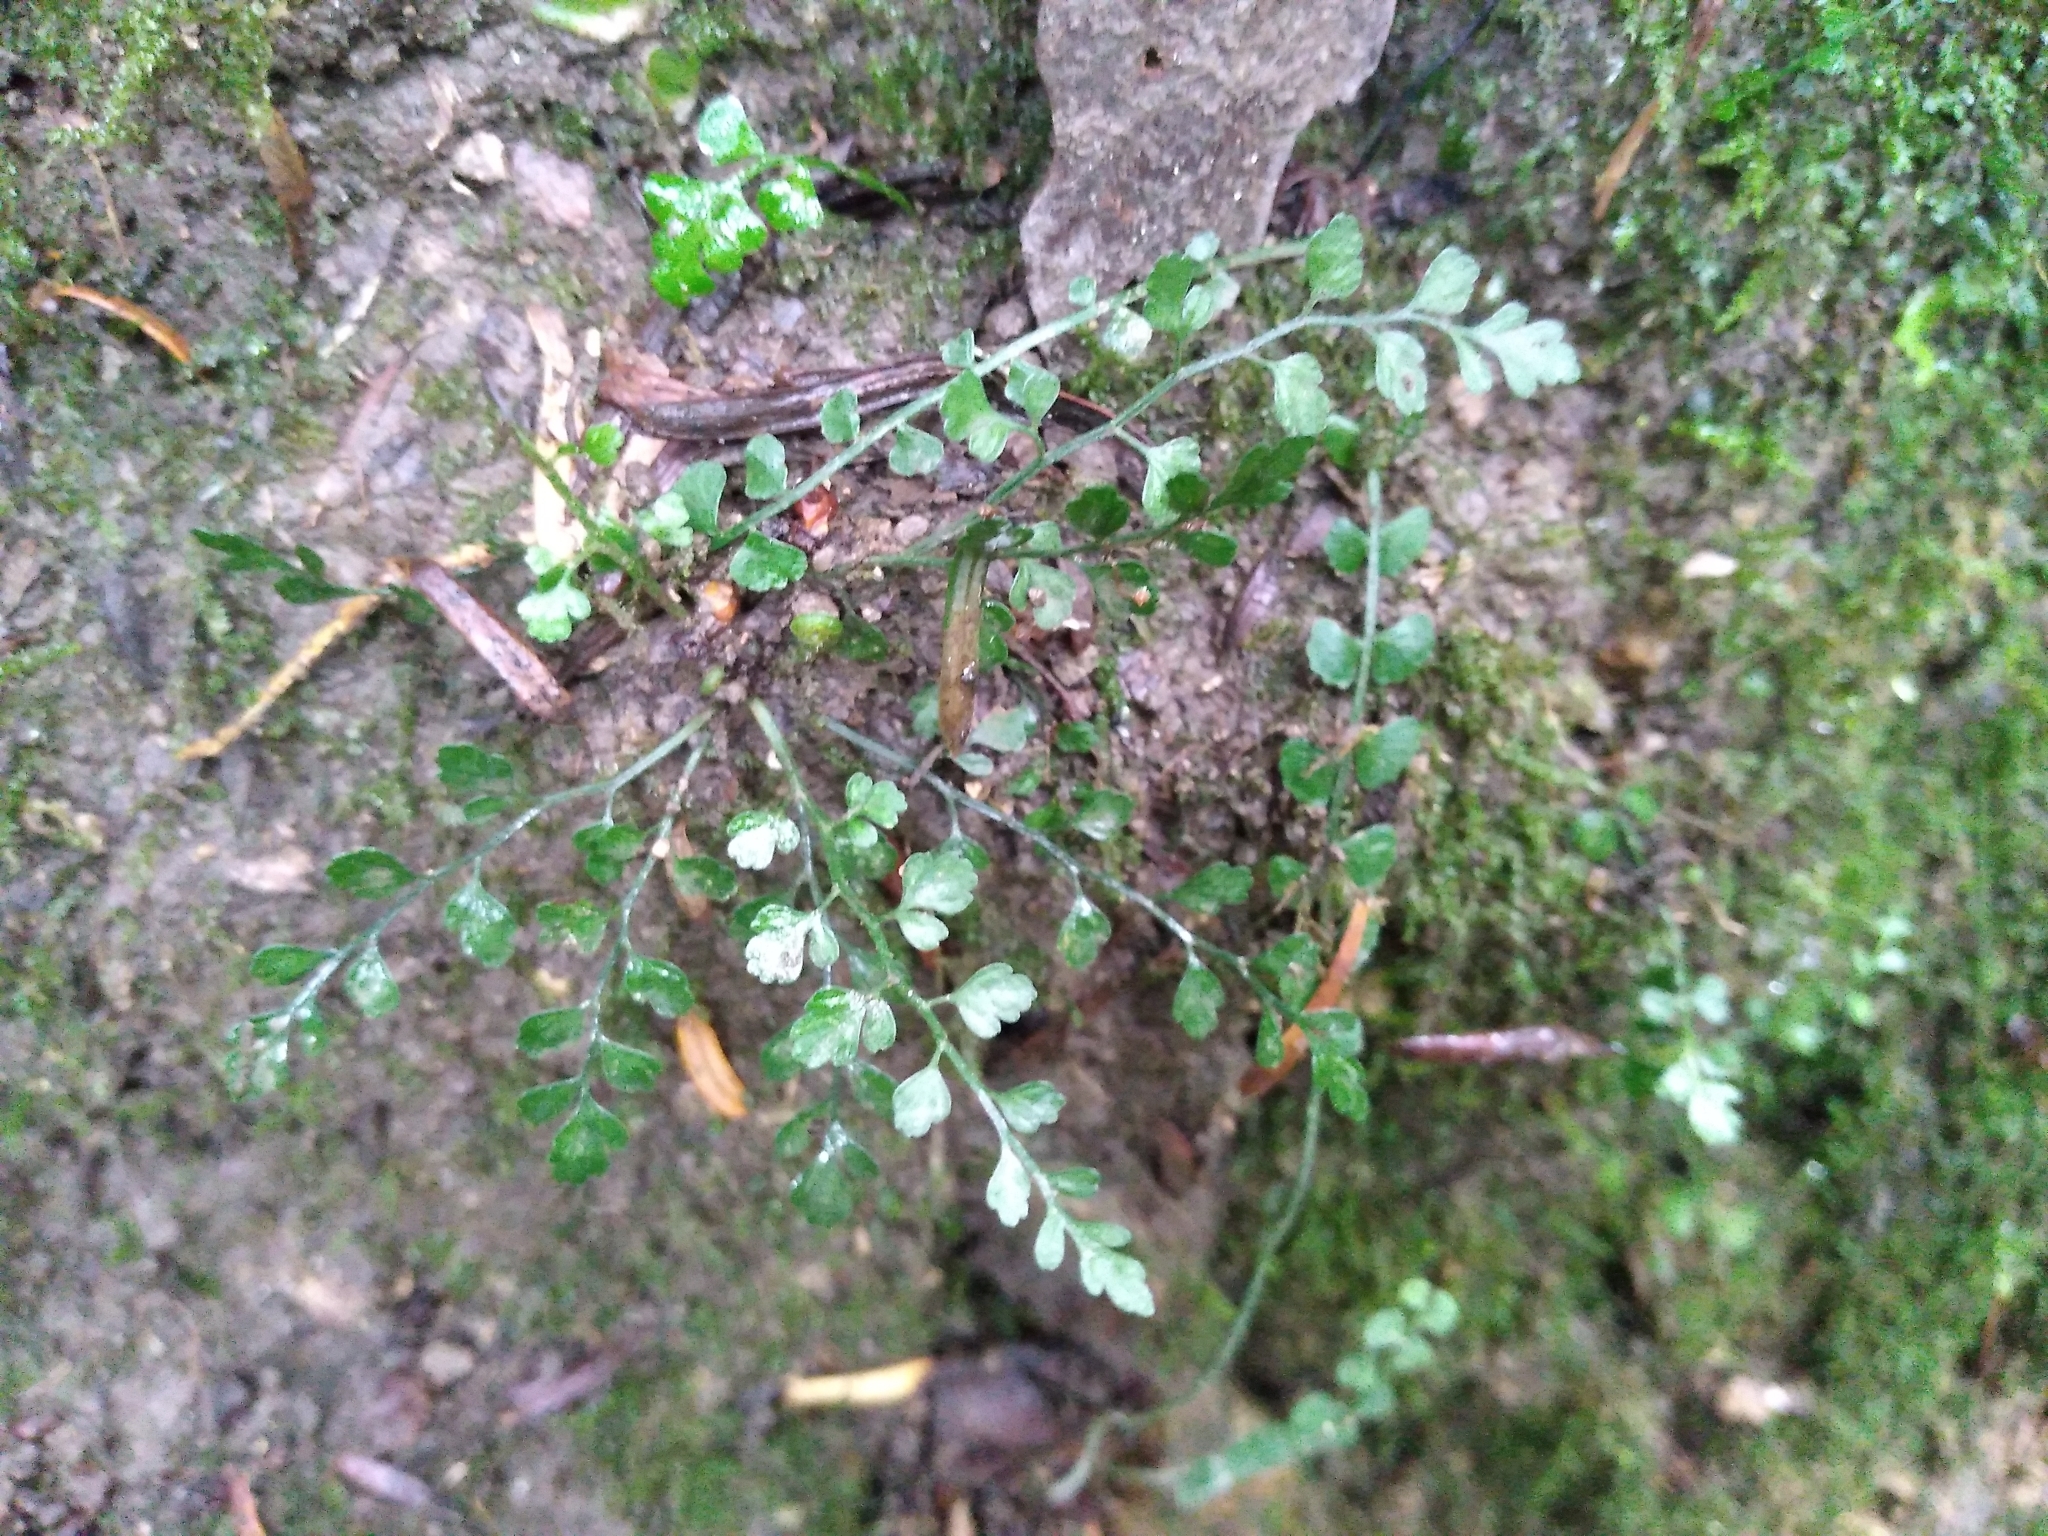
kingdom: Plantae
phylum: Tracheophyta
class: Polypodiopsida
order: Polypodiales
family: Aspleniaceae
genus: Asplenium
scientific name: Asplenium hookerianum
